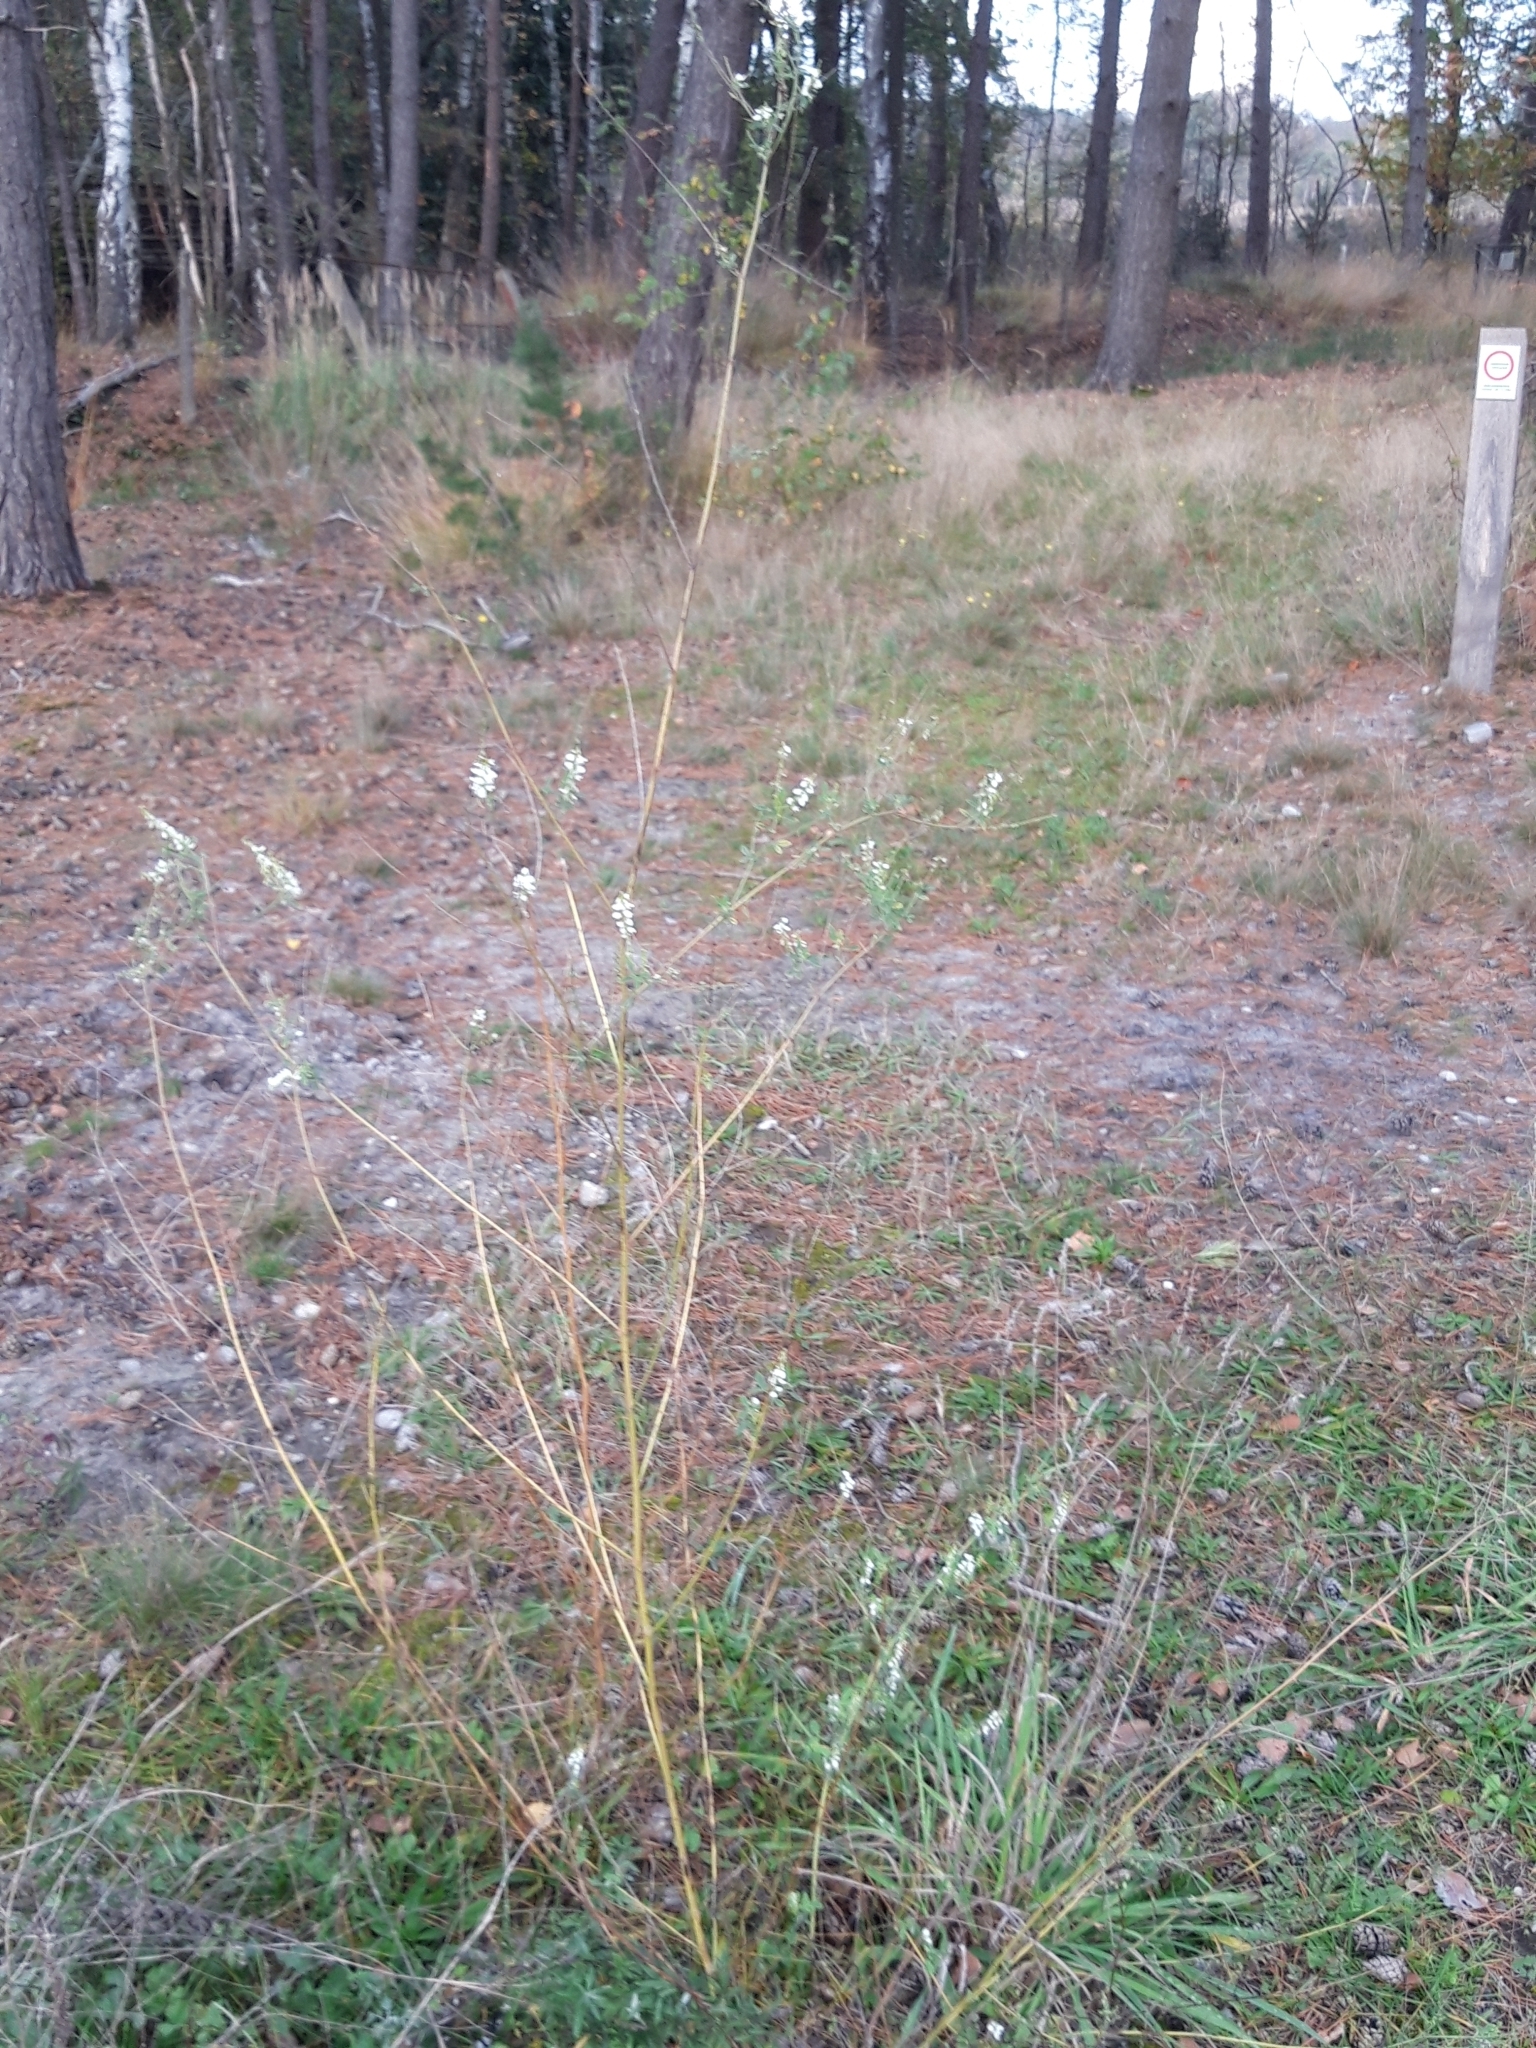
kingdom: Plantae
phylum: Tracheophyta
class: Magnoliopsida
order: Fabales
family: Fabaceae
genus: Melilotus
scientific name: Melilotus albus
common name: White melilot
